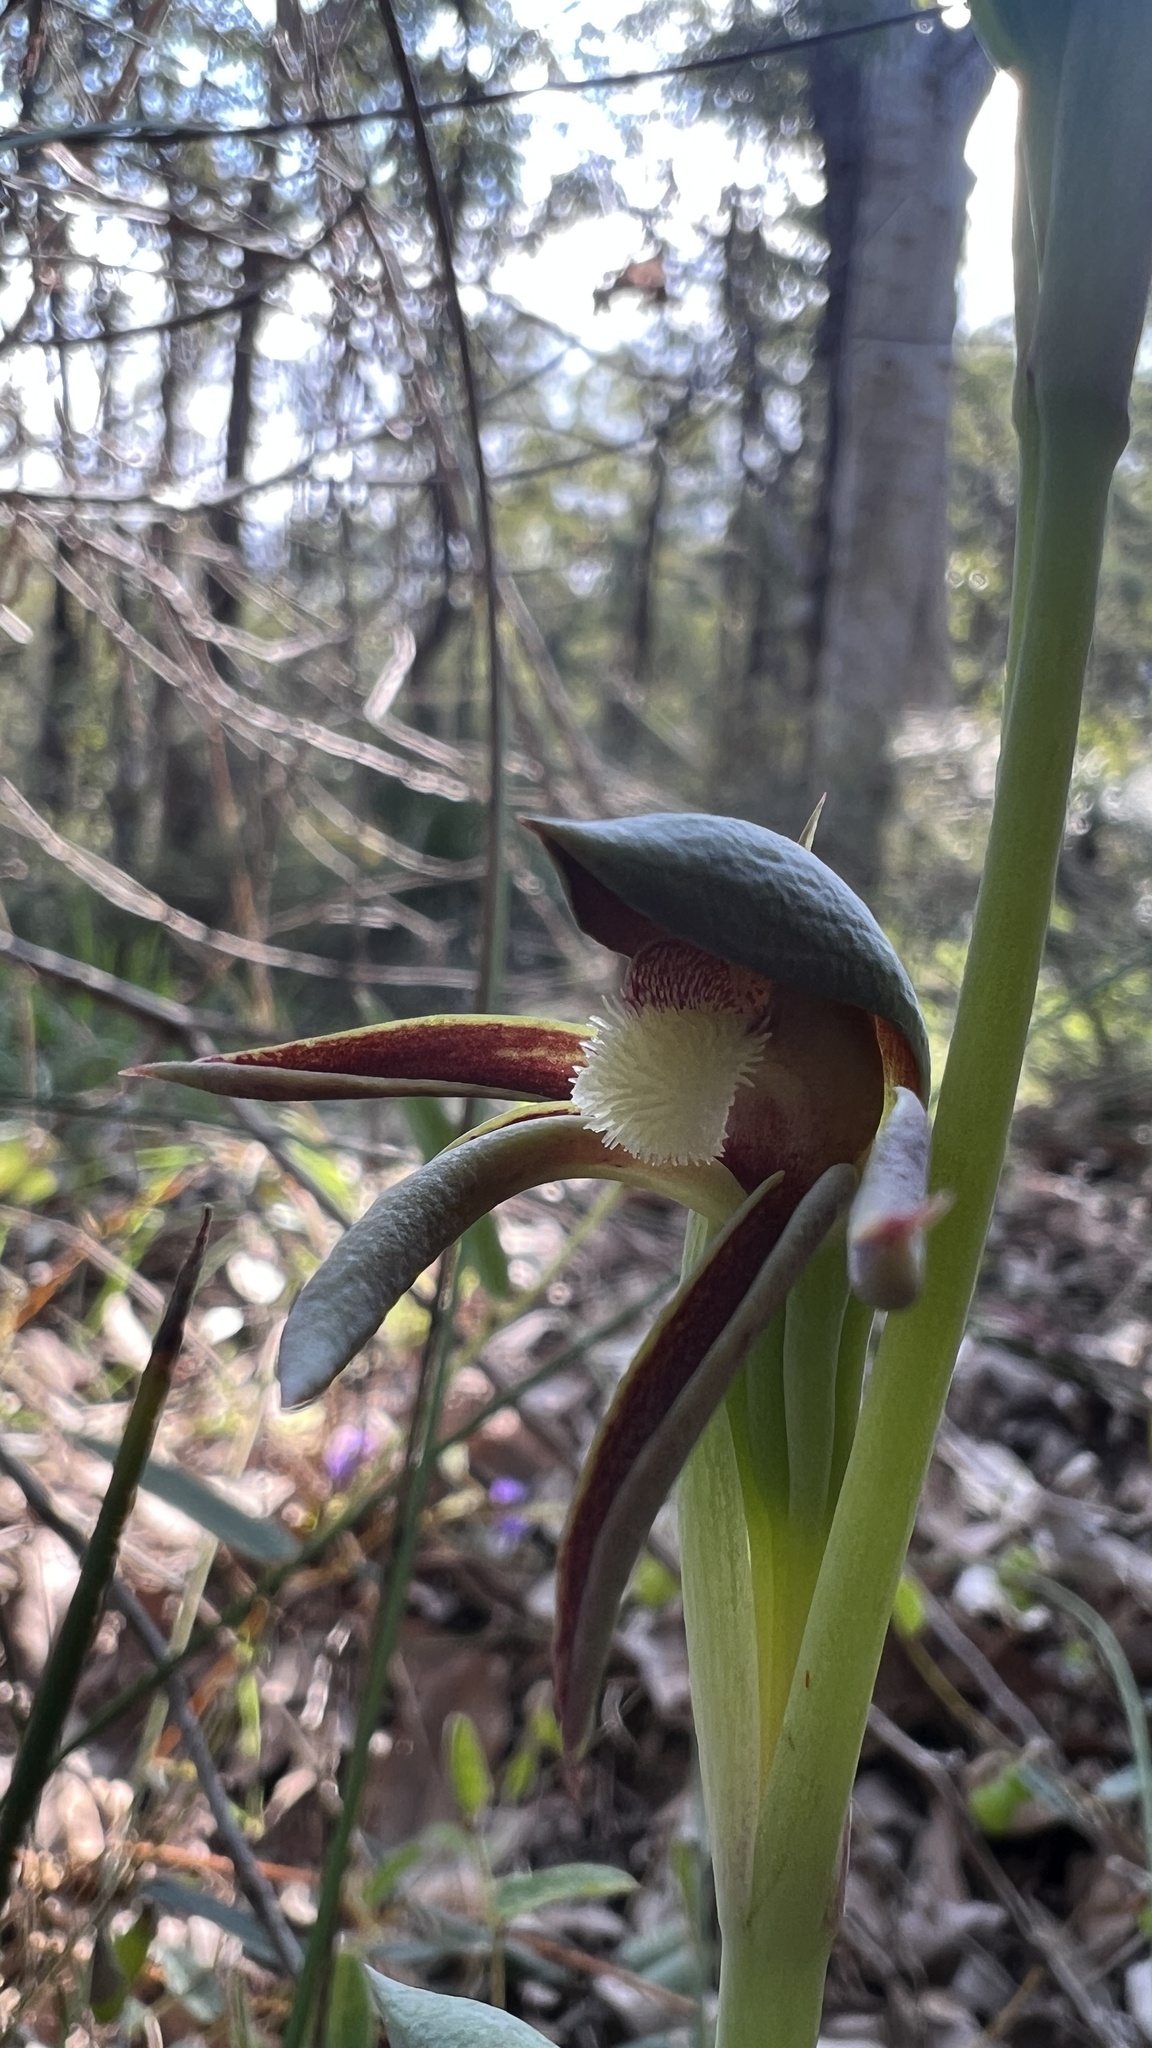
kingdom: Plantae
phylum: Tracheophyta
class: Liliopsida
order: Asparagales
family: Orchidaceae
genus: Lyperanthus
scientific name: Lyperanthus serratus
